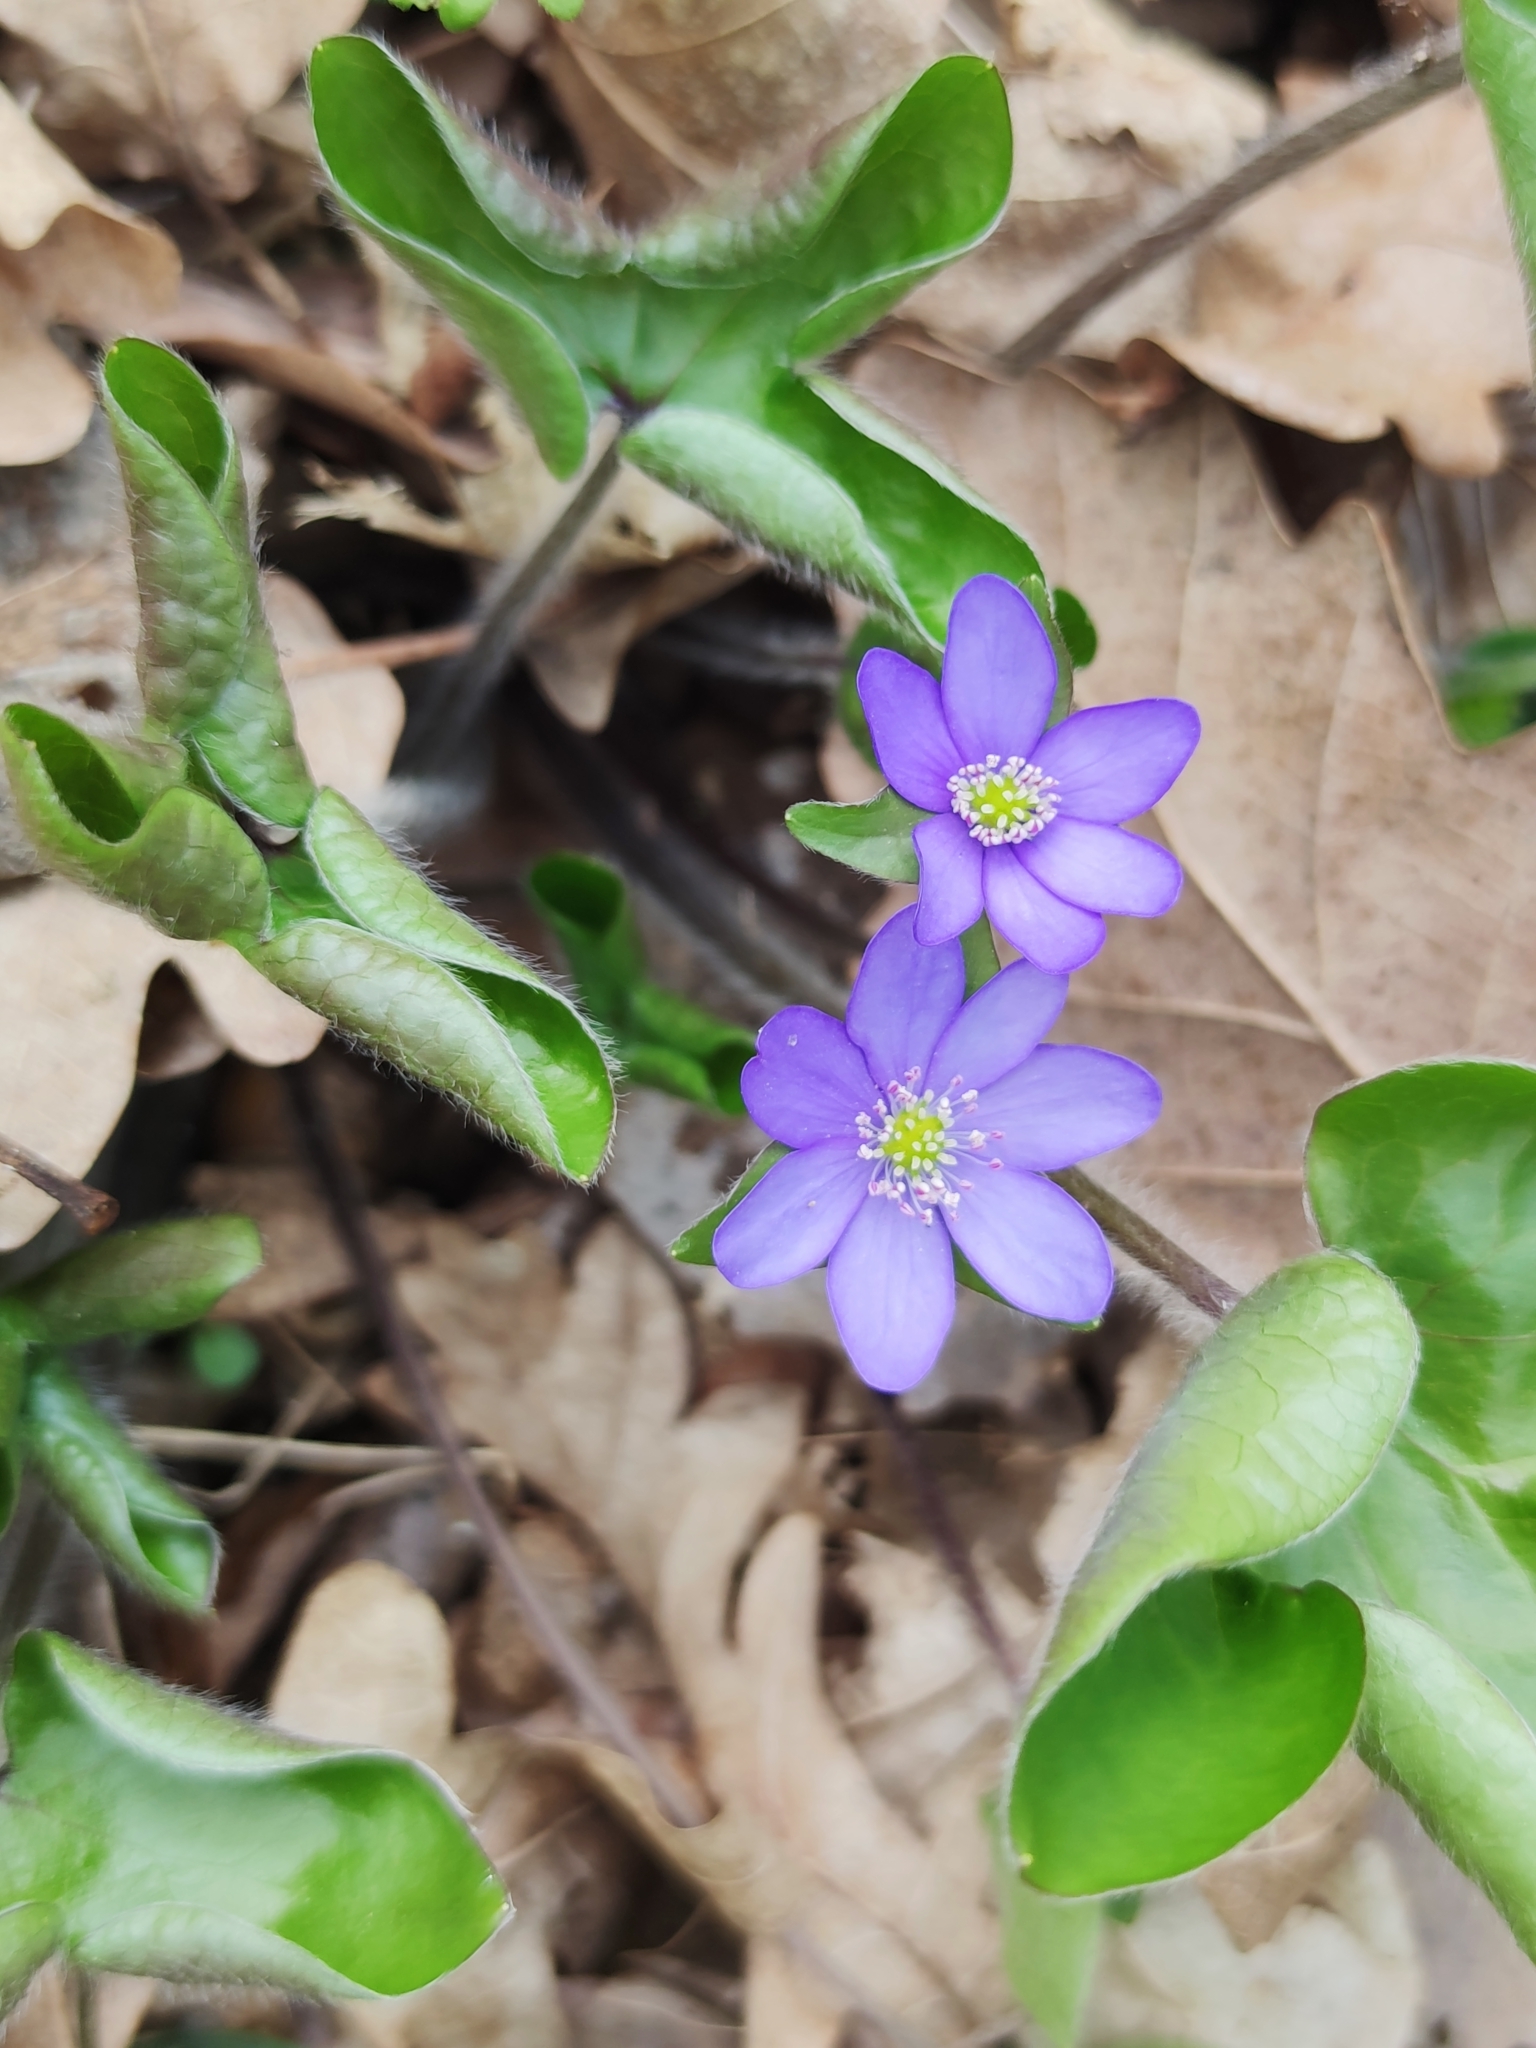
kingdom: Plantae
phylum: Tracheophyta
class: Magnoliopsida
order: Ranunculales
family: Ranunculaceae
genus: Hepatica
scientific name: Hepatica nobilis
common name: Liverleaf
